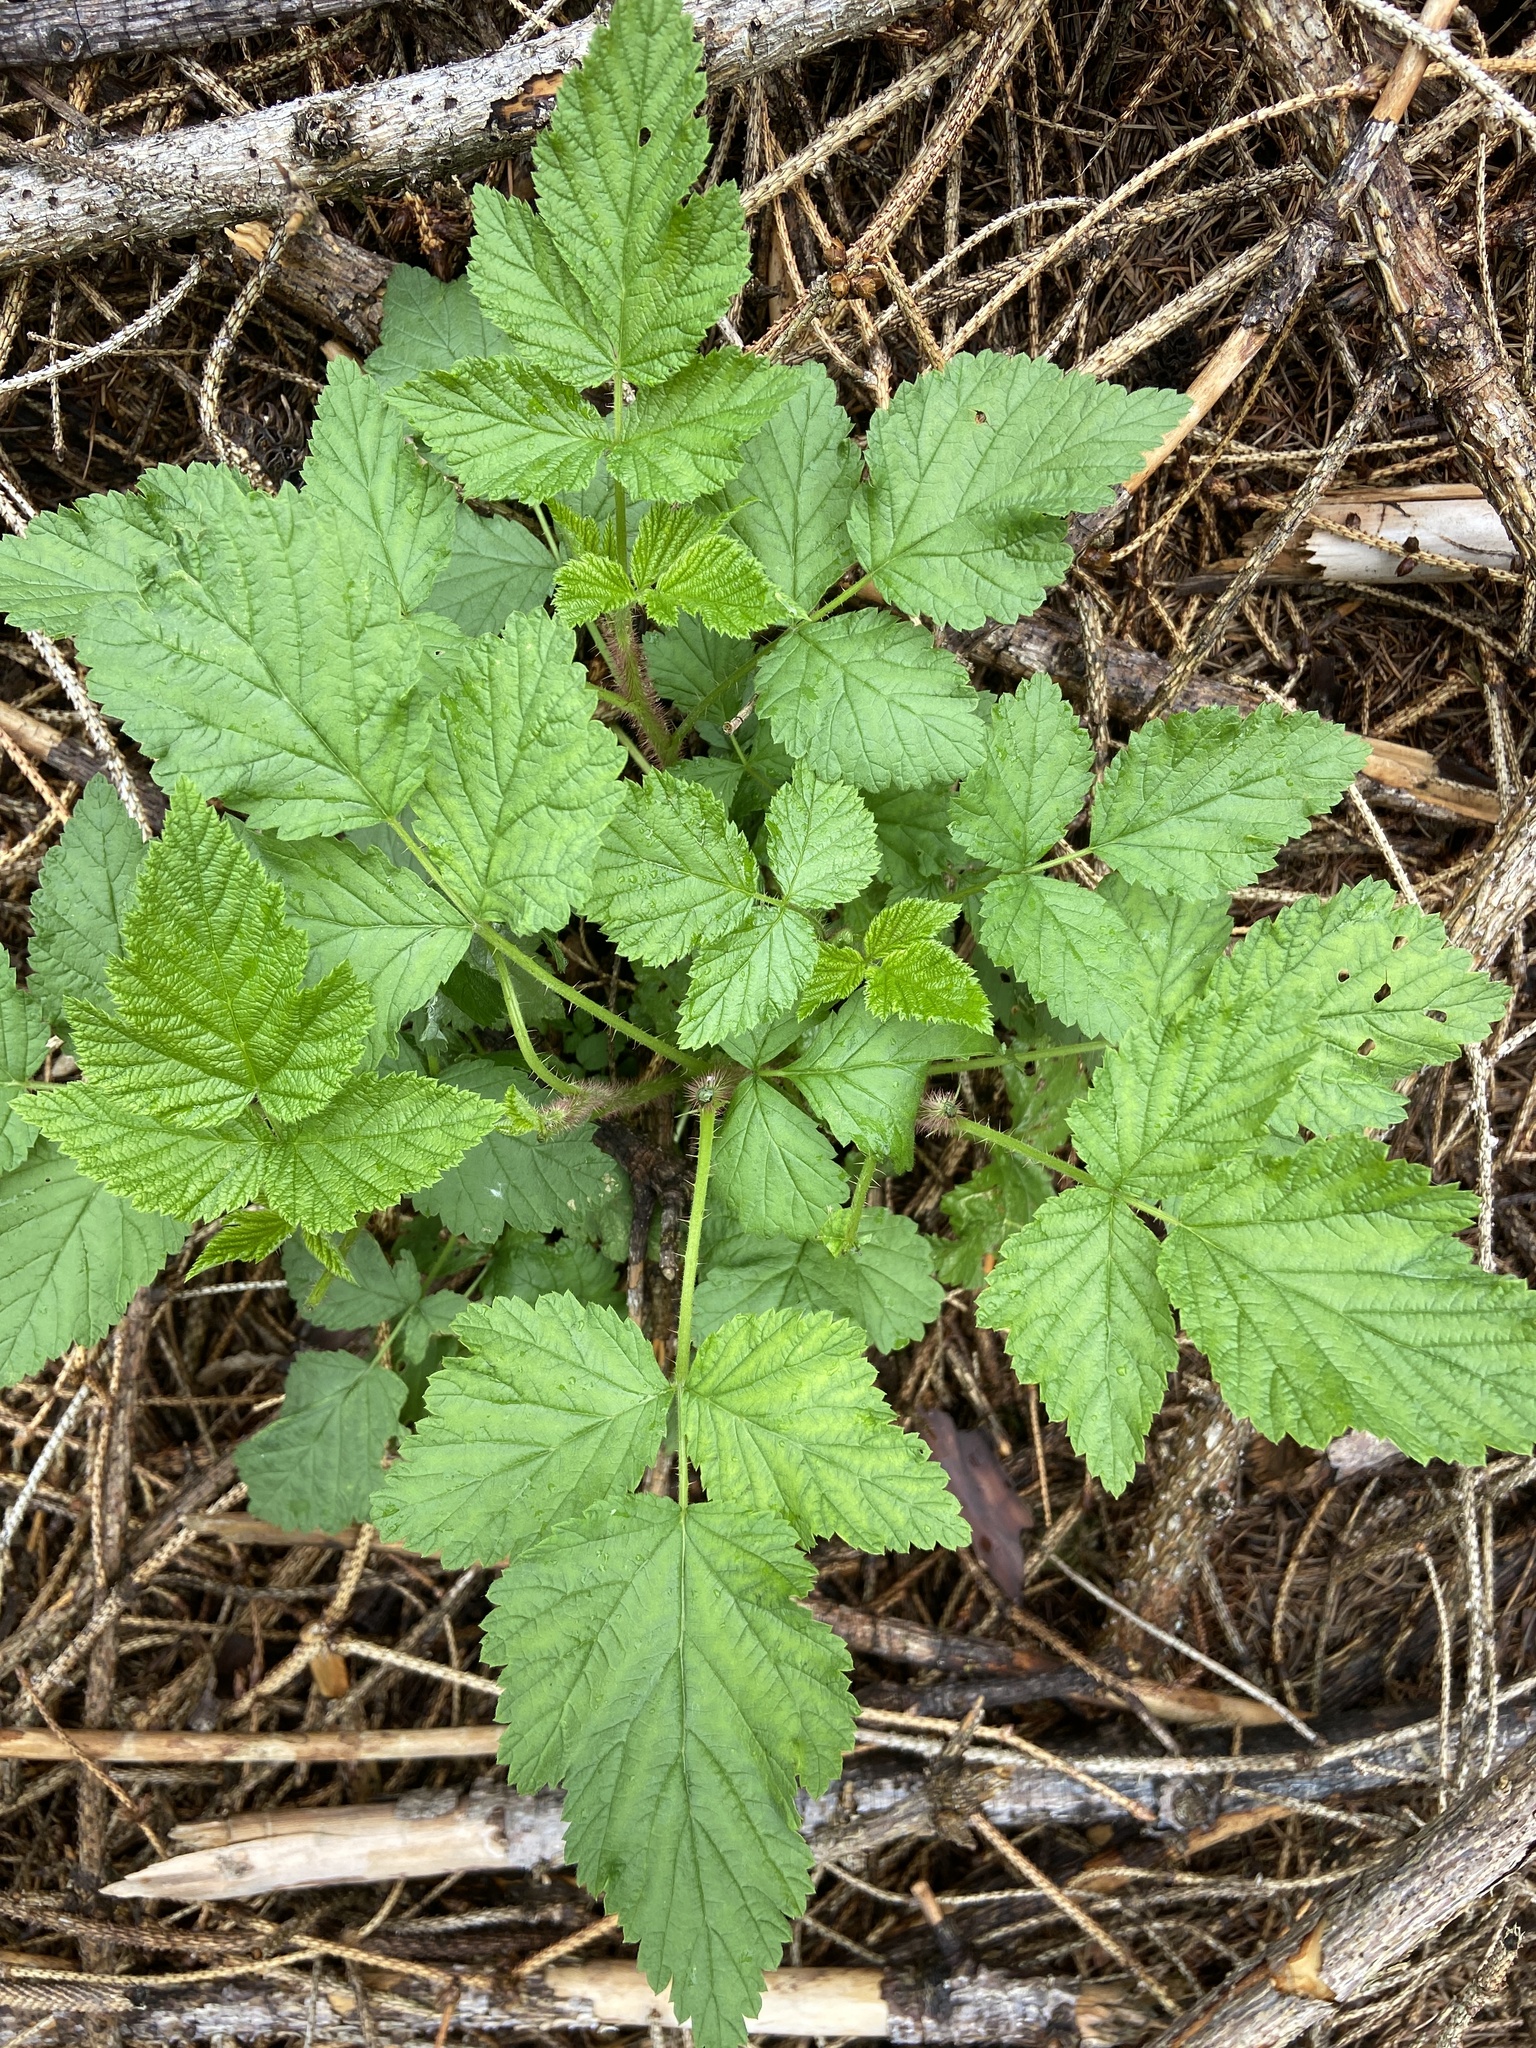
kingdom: Plantae
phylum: Tracheophyta
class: Magnoliopsida
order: Rosales
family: Rosaceae
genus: Rubus
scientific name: Rubus idaeus
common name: Raspberry
